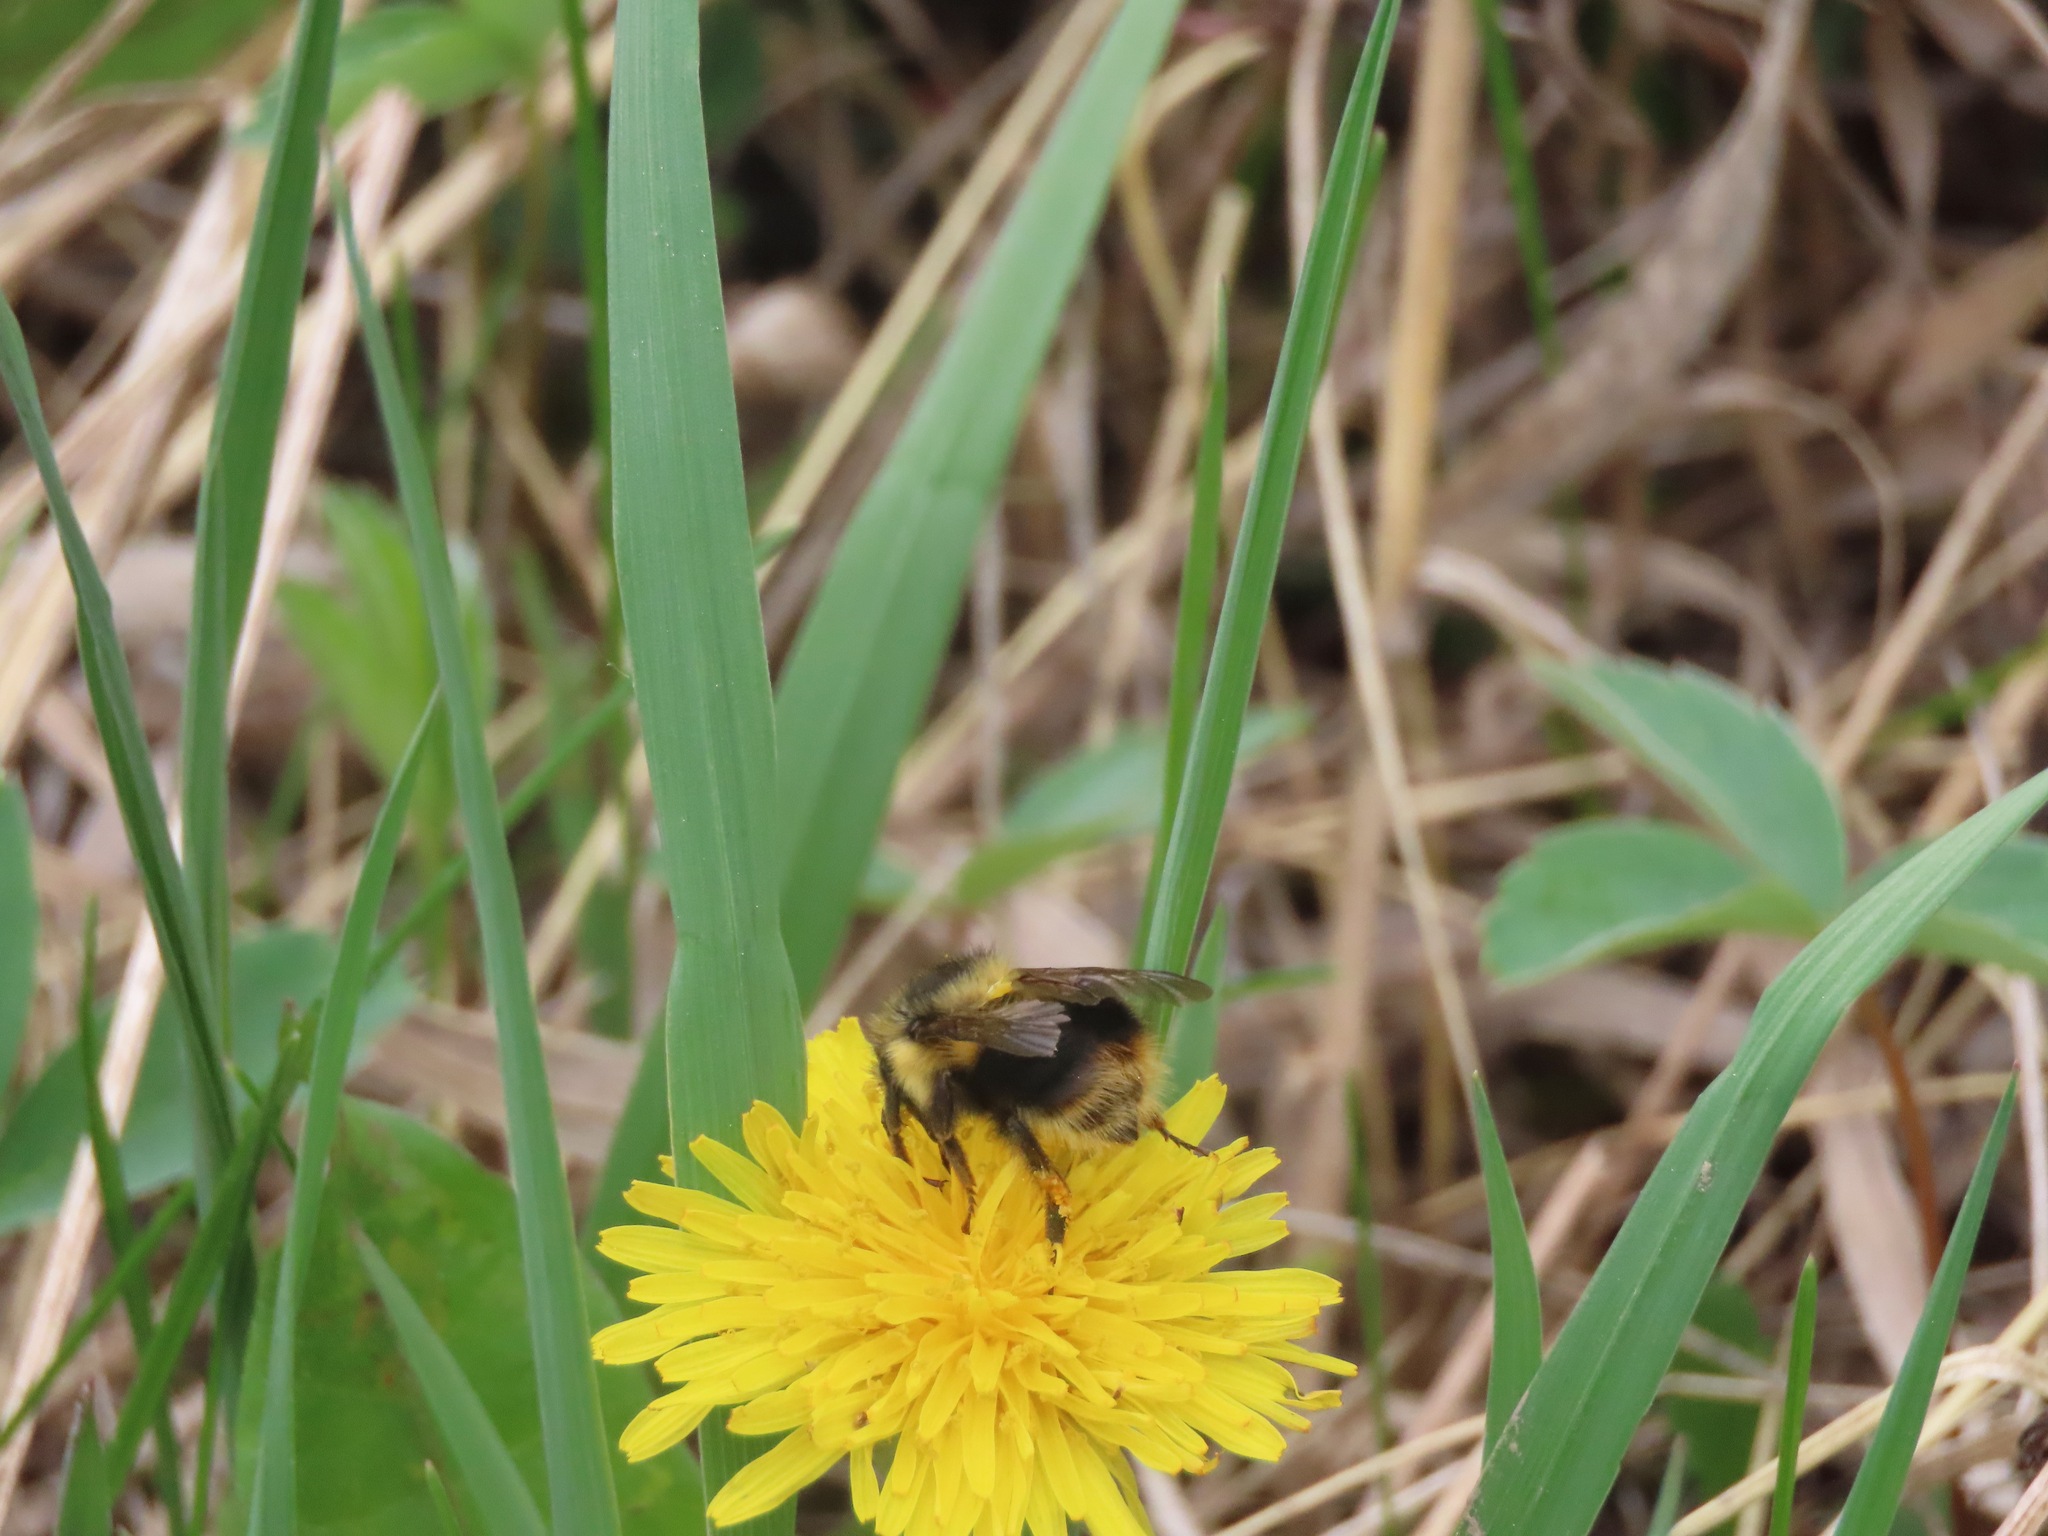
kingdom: Animalia
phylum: Arthropoda
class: Insecta
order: Hymenoptera
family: Apidae
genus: Bombus
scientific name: Bombus mixtus
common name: Fuzzy-horned bumble bee
